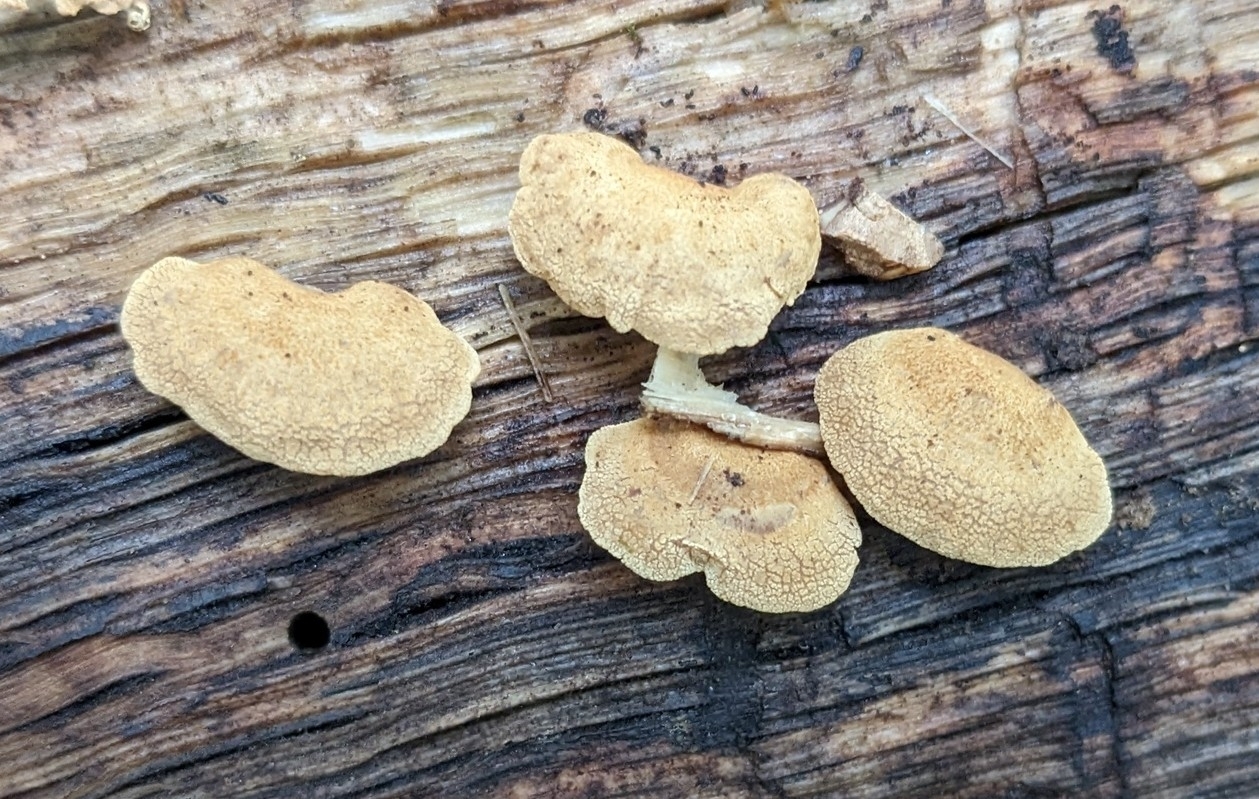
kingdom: Fungi
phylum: Basidiomycota
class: Agaricomycetes
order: Agaricales
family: Mycenaceae
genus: Panellus
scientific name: Panellus stipticus
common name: Bitter oysterling
